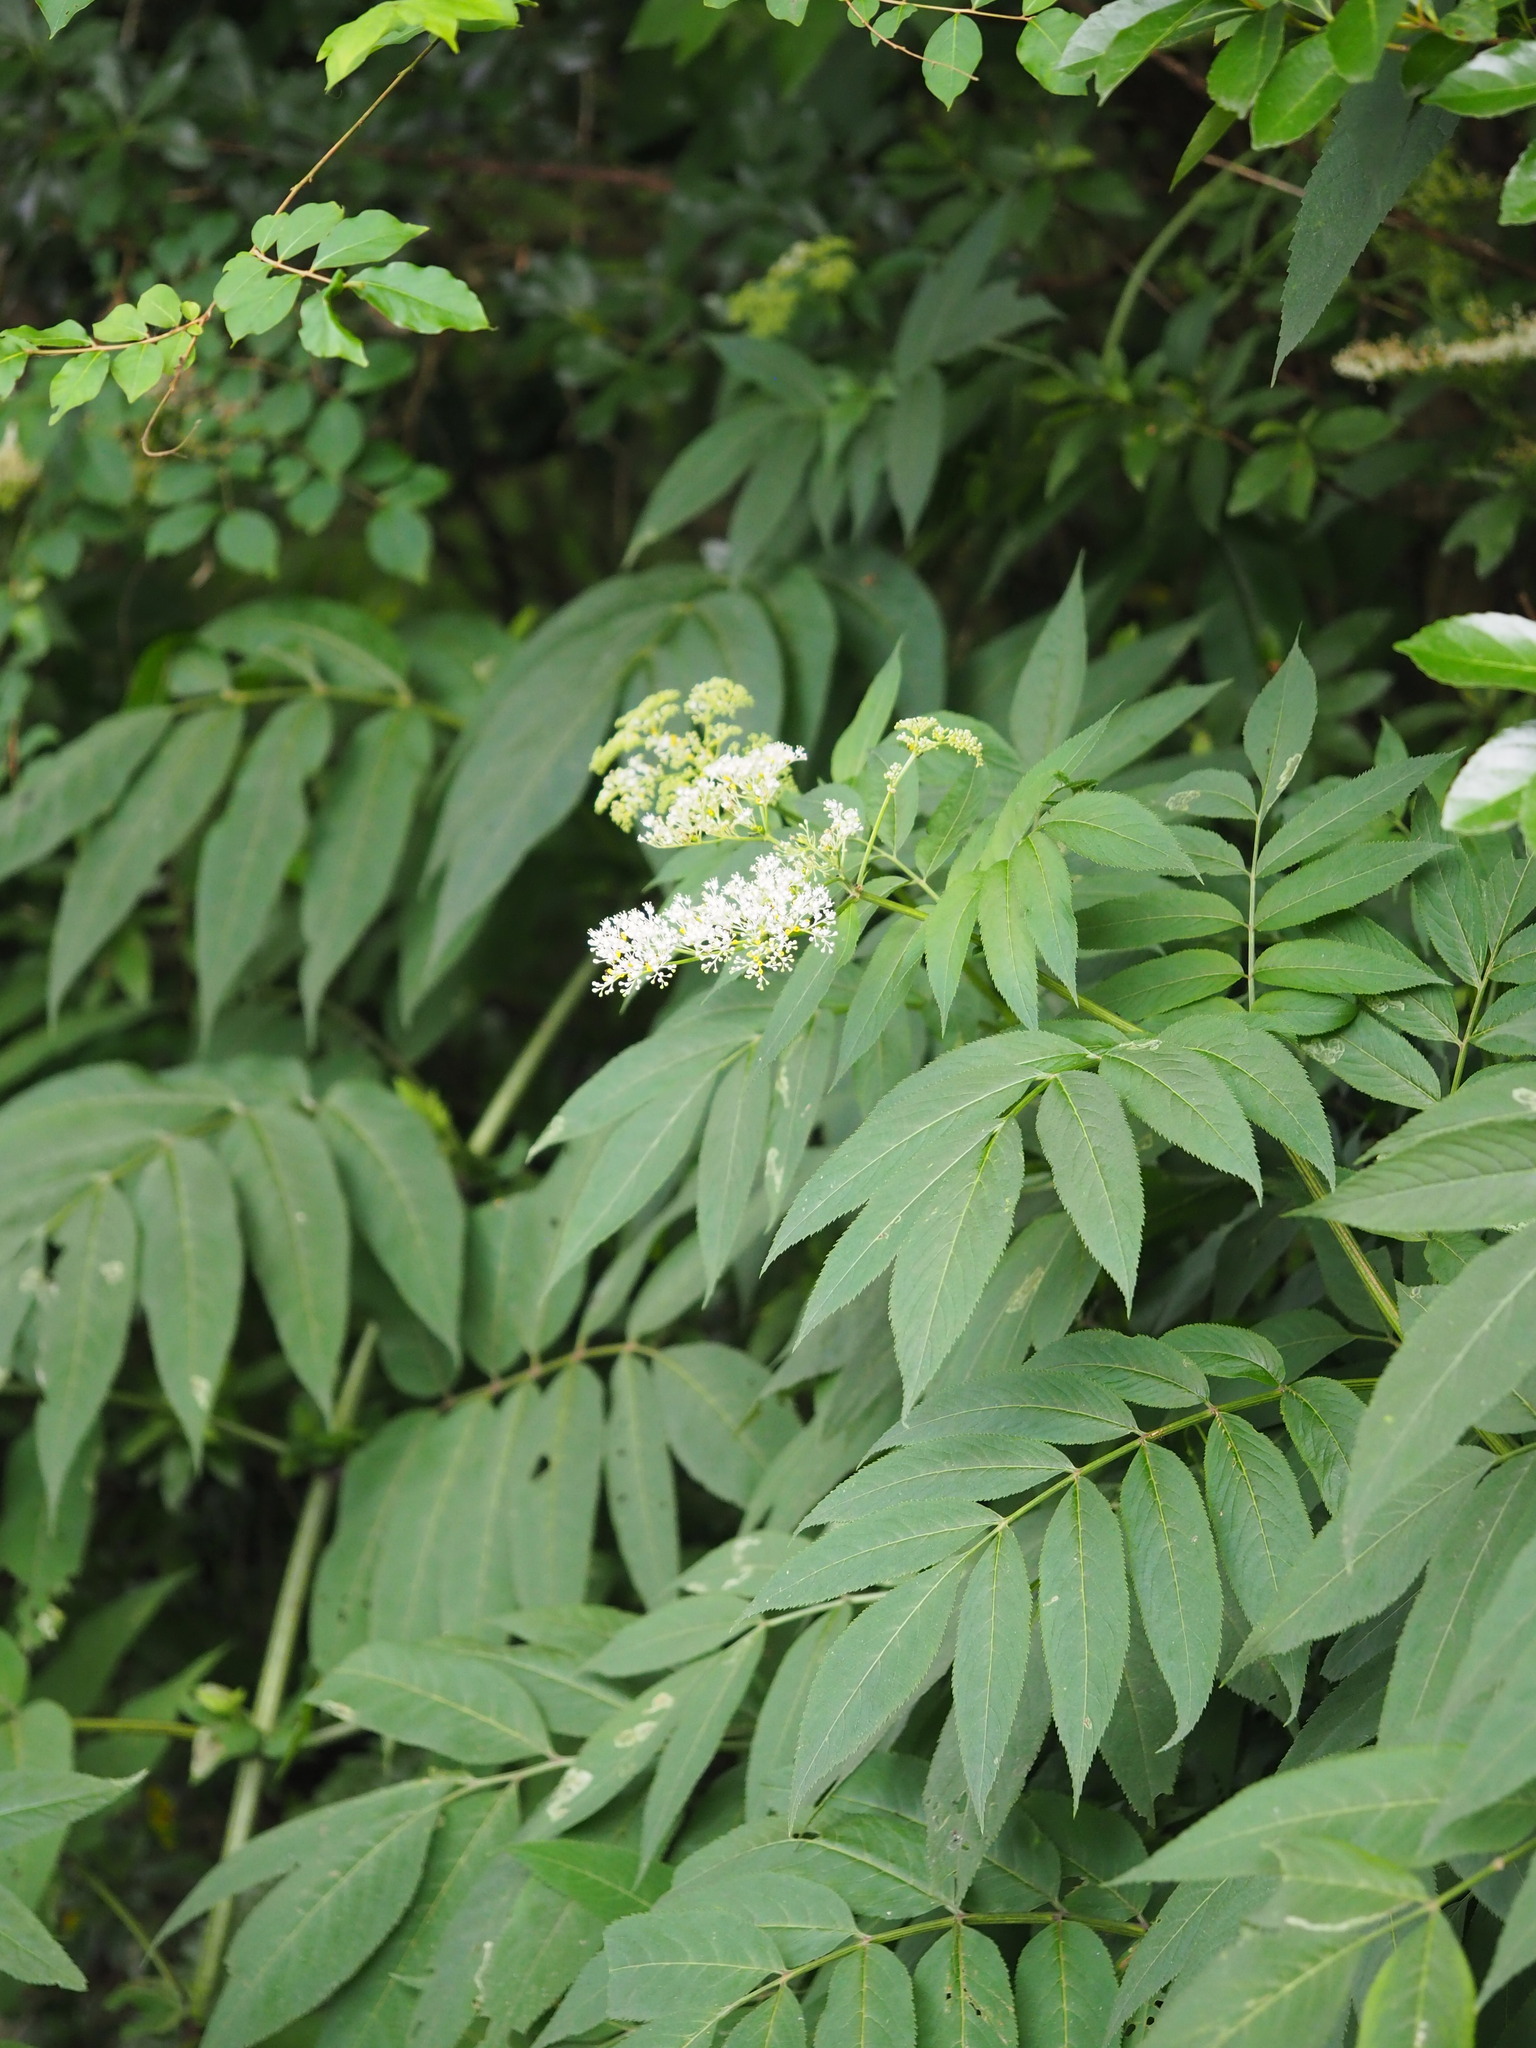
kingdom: Plantae
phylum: Tracheophyta
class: Magnoliopsida
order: Dipsacales
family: Viburnaceae
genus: Sambucus
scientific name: Sambucus javanica
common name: Chinese elder
